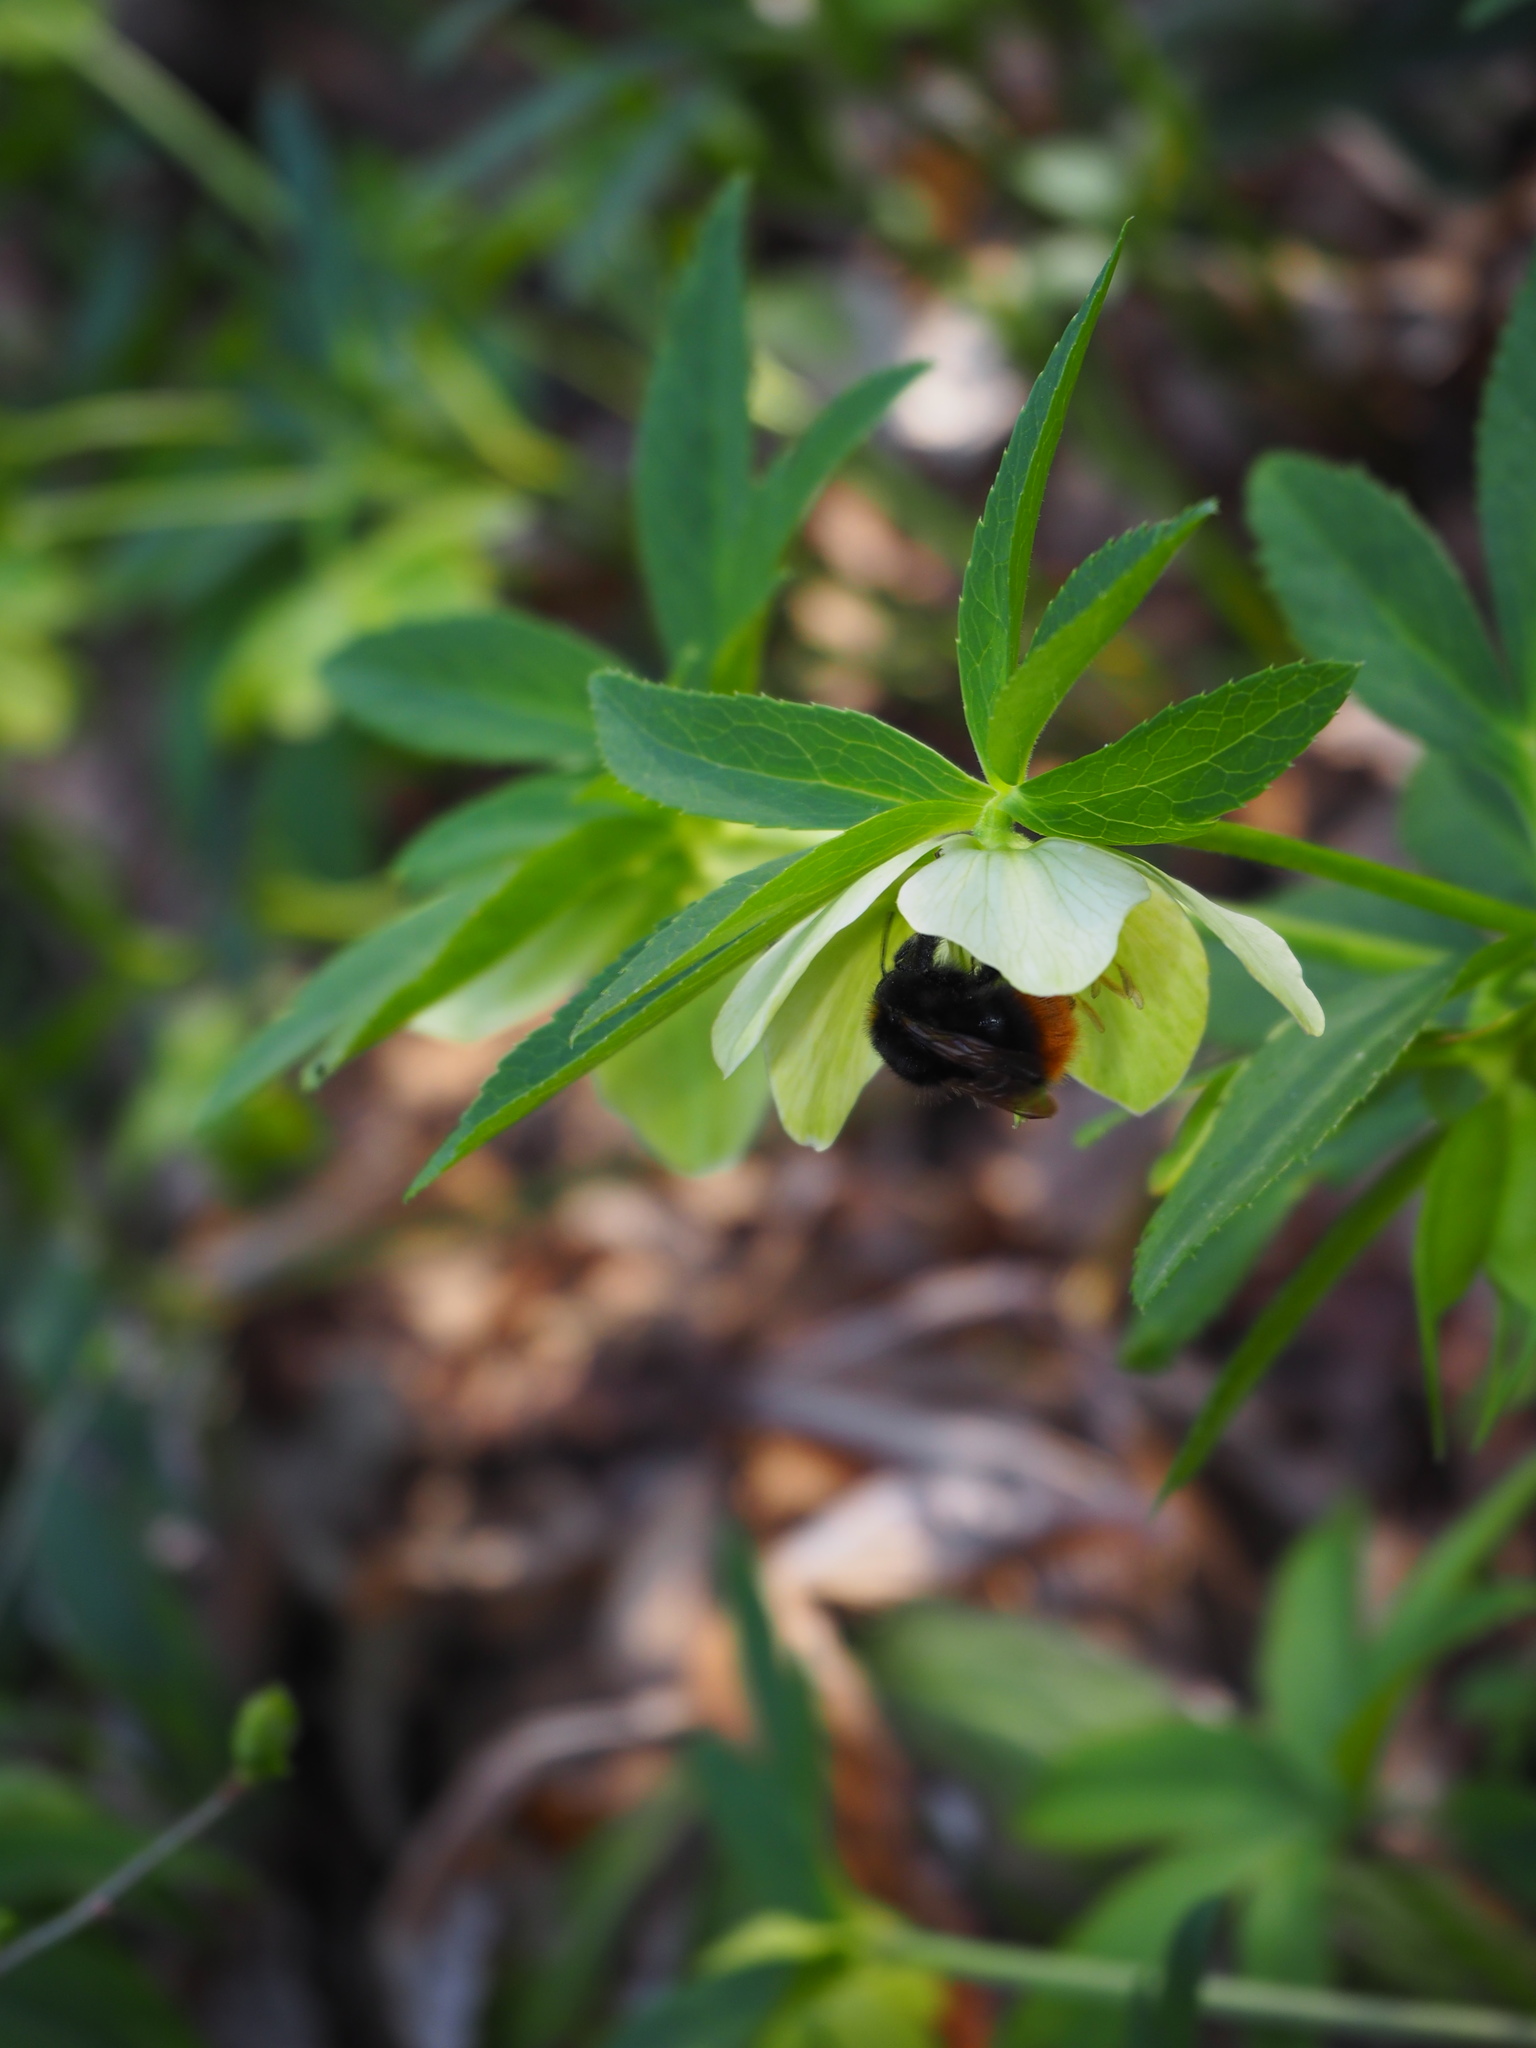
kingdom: Animalia
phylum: Arthropoda
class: Insecta
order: Hymenoptera
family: Apidae
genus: Bombus
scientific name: Bombus pratorum
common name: Early humble-bee
